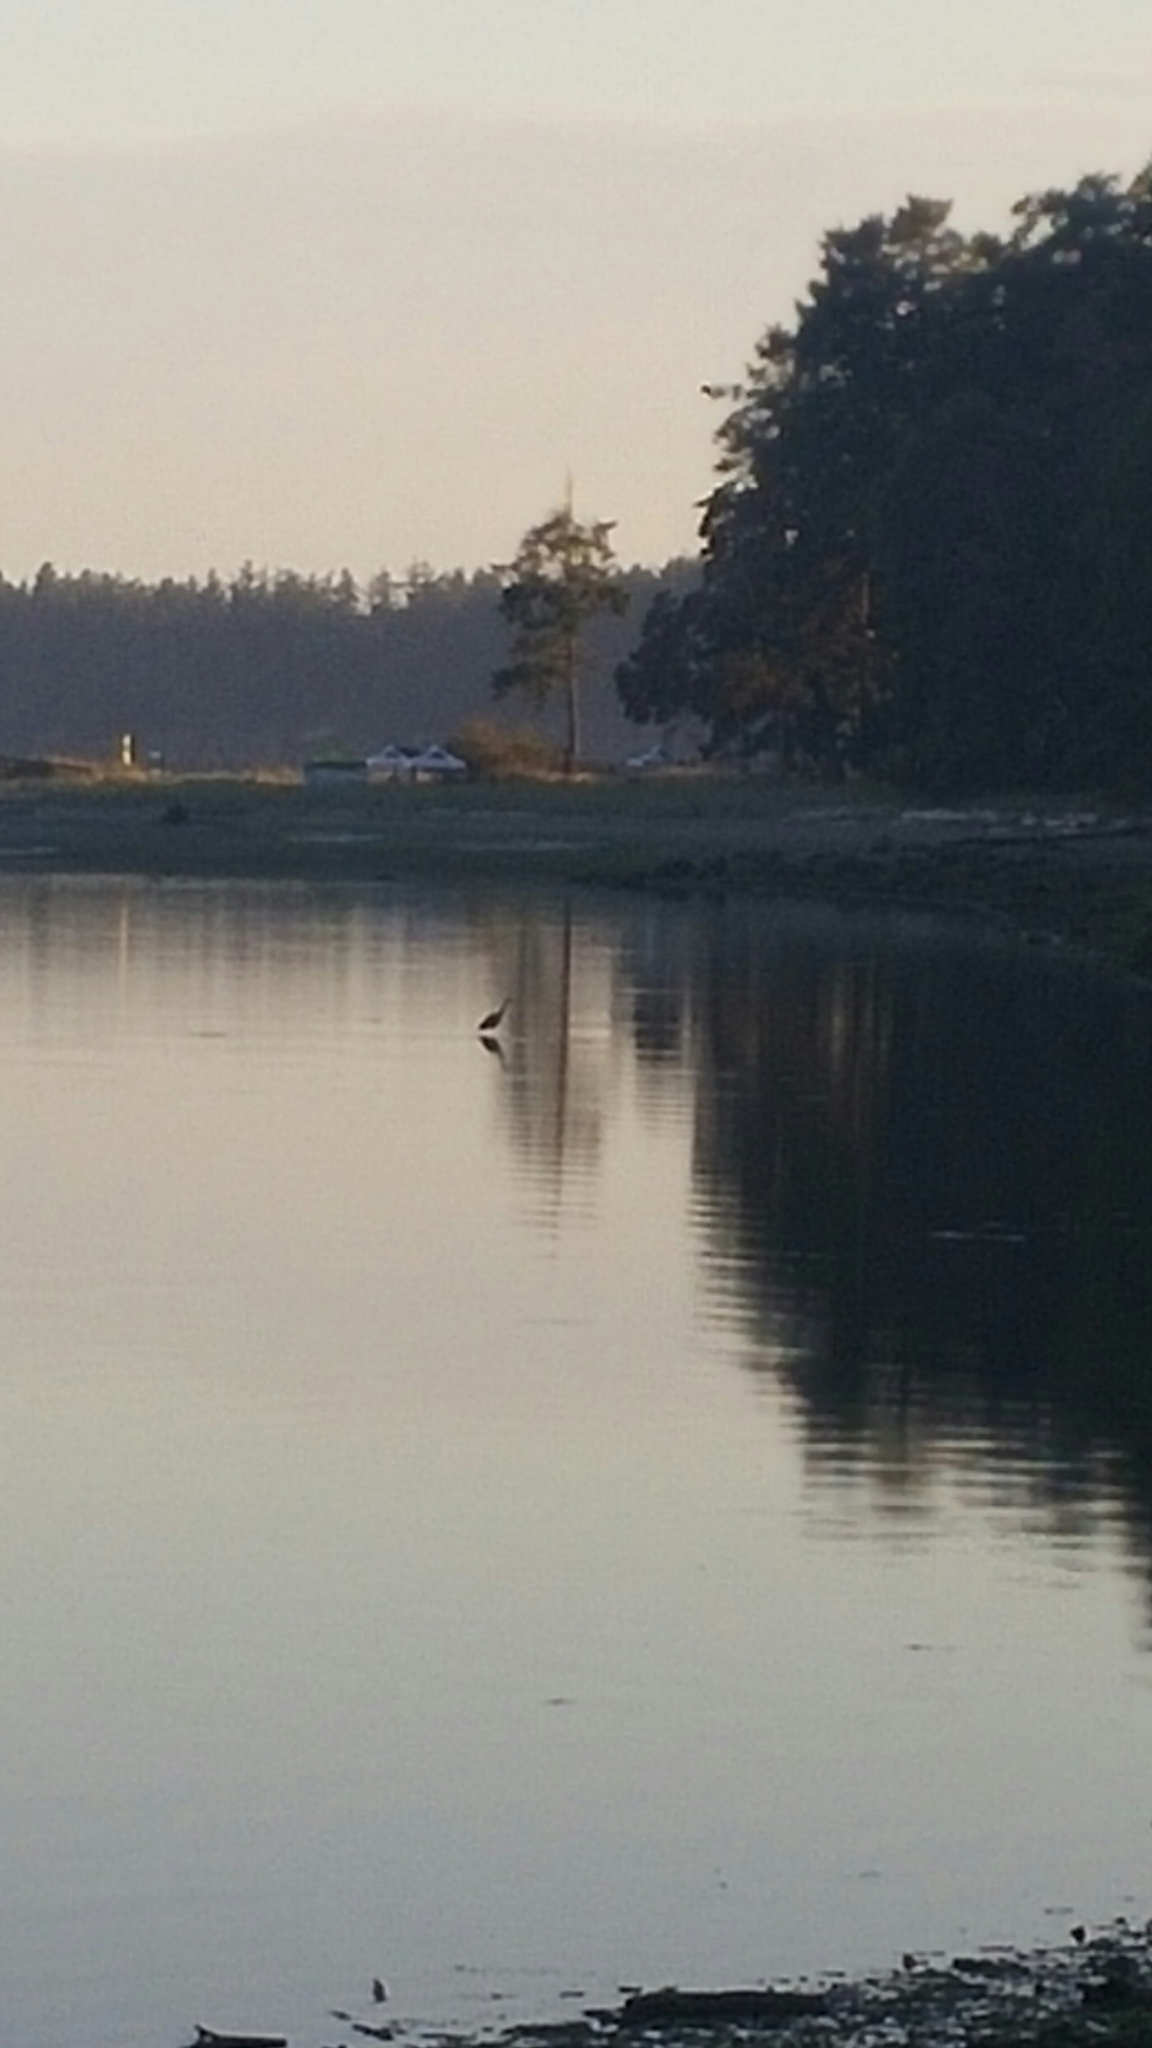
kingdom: Animalia
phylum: Chordata
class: Aves
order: Pelecaniformes
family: Ardeidae
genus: Ardea
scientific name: Ardea herodias
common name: Great blue heron
